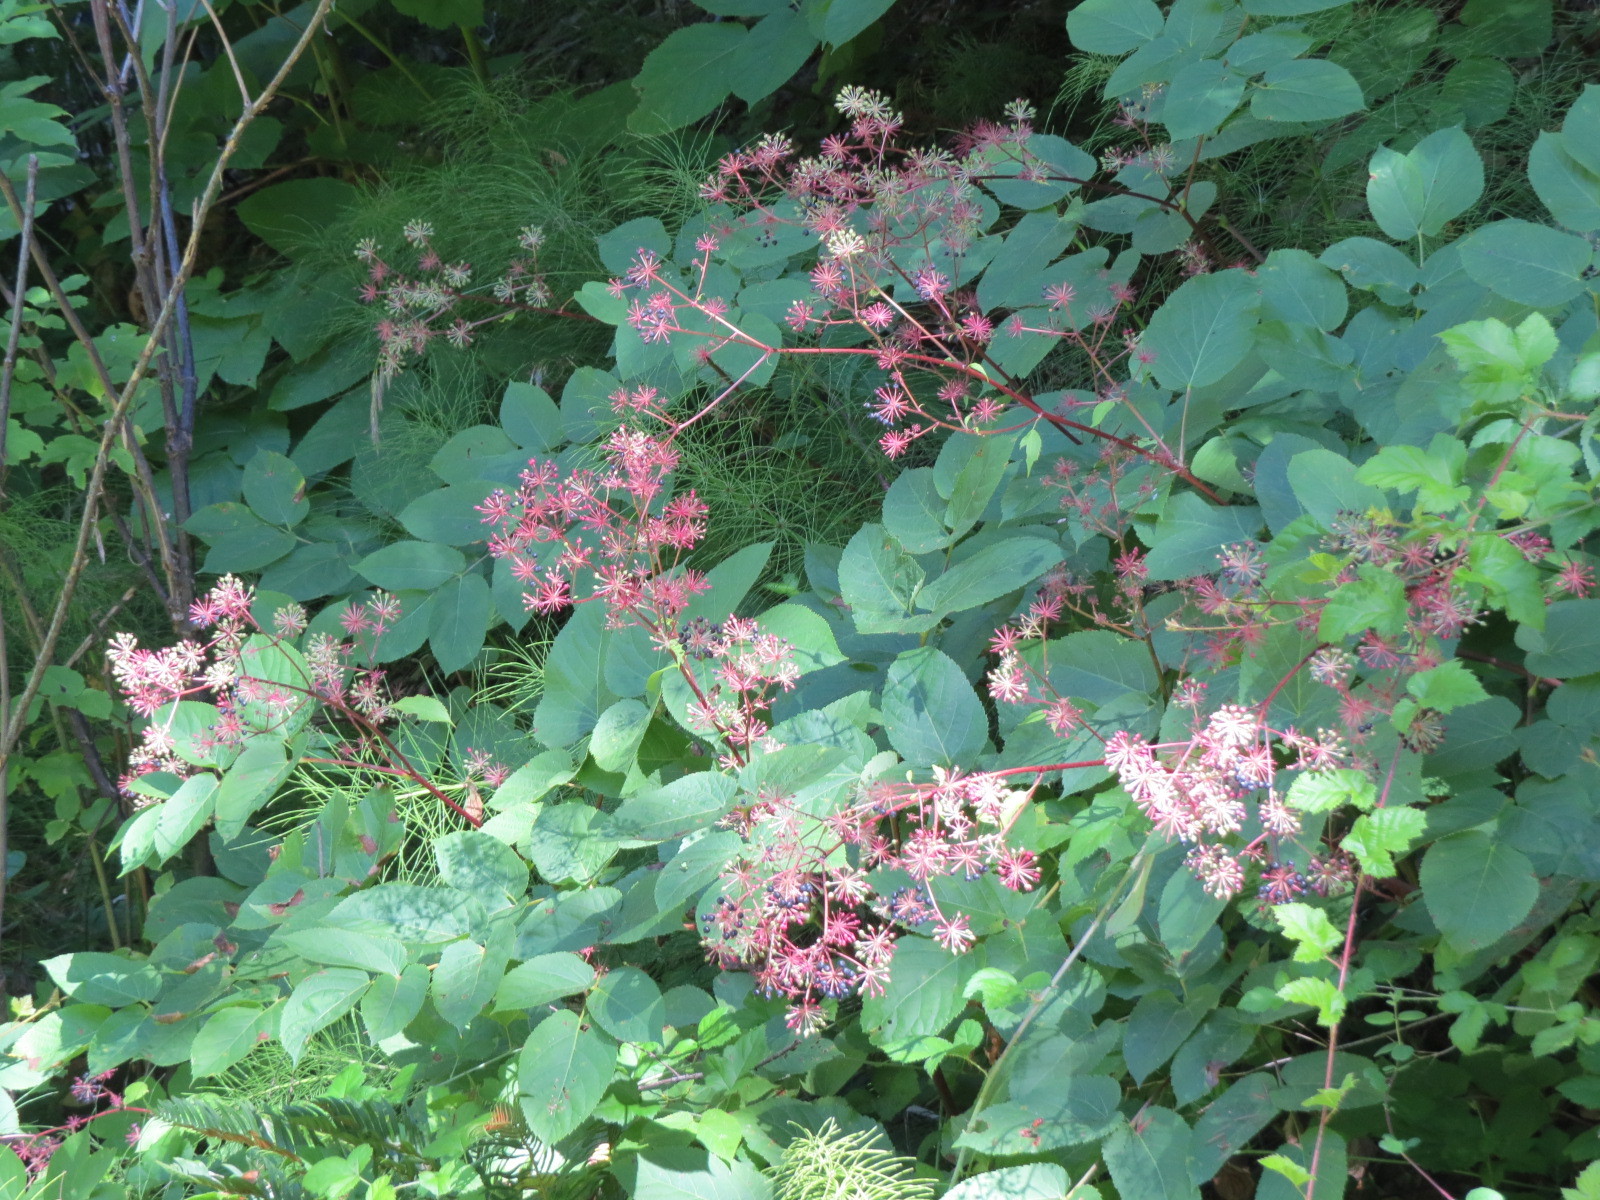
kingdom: Plantae
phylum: Tracheophyta
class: Magnoliopsida
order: Apiales
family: Araliaceae
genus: Aralia
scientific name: Aralia californica
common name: California-ginseng
